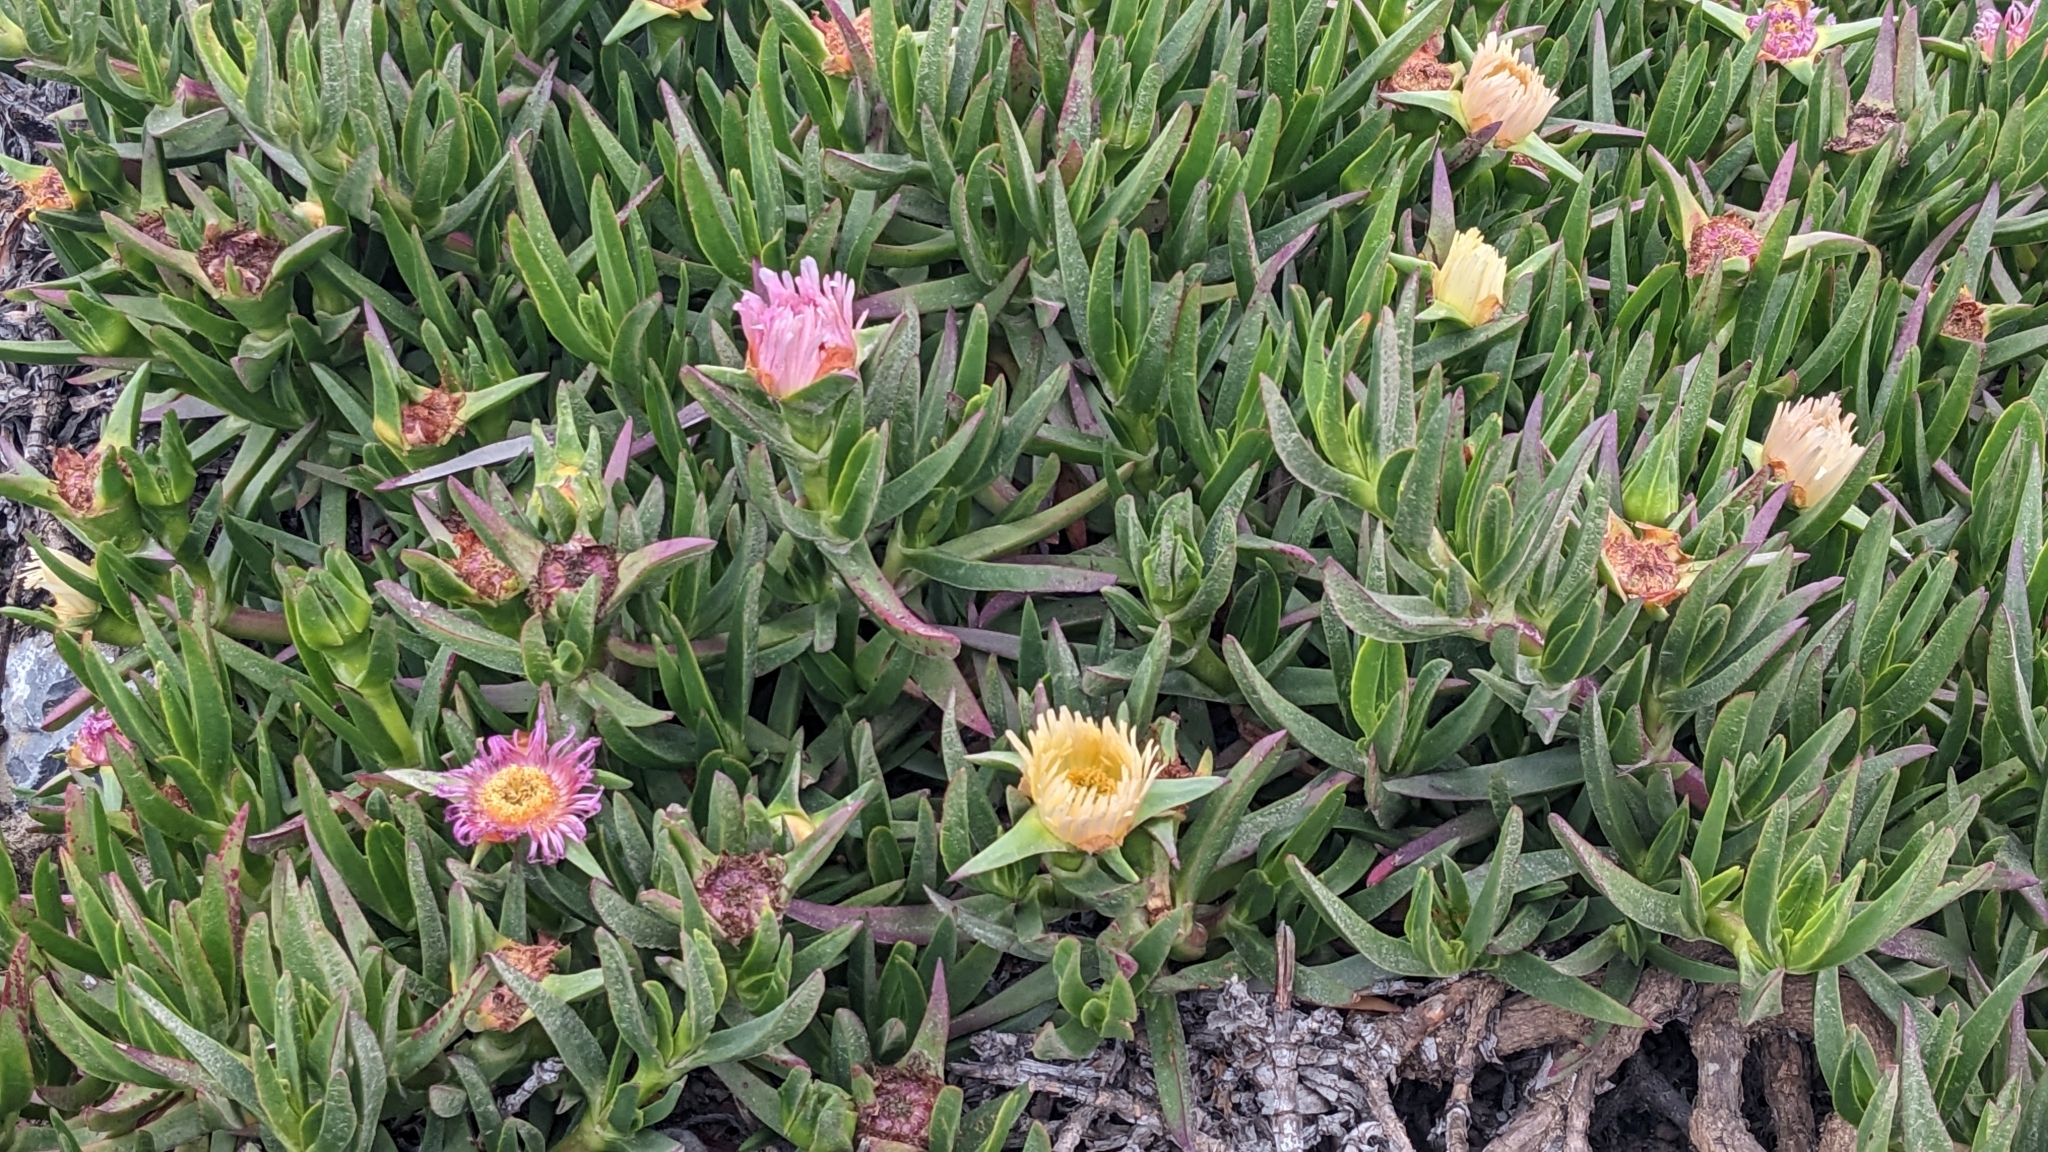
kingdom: Plantae
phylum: Tracheophyta
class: Magnoliopsida
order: Caryophyllales
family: Aizoaceae
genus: Carpobrotus
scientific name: Carpobrotus edulis
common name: Hottentot-fig
